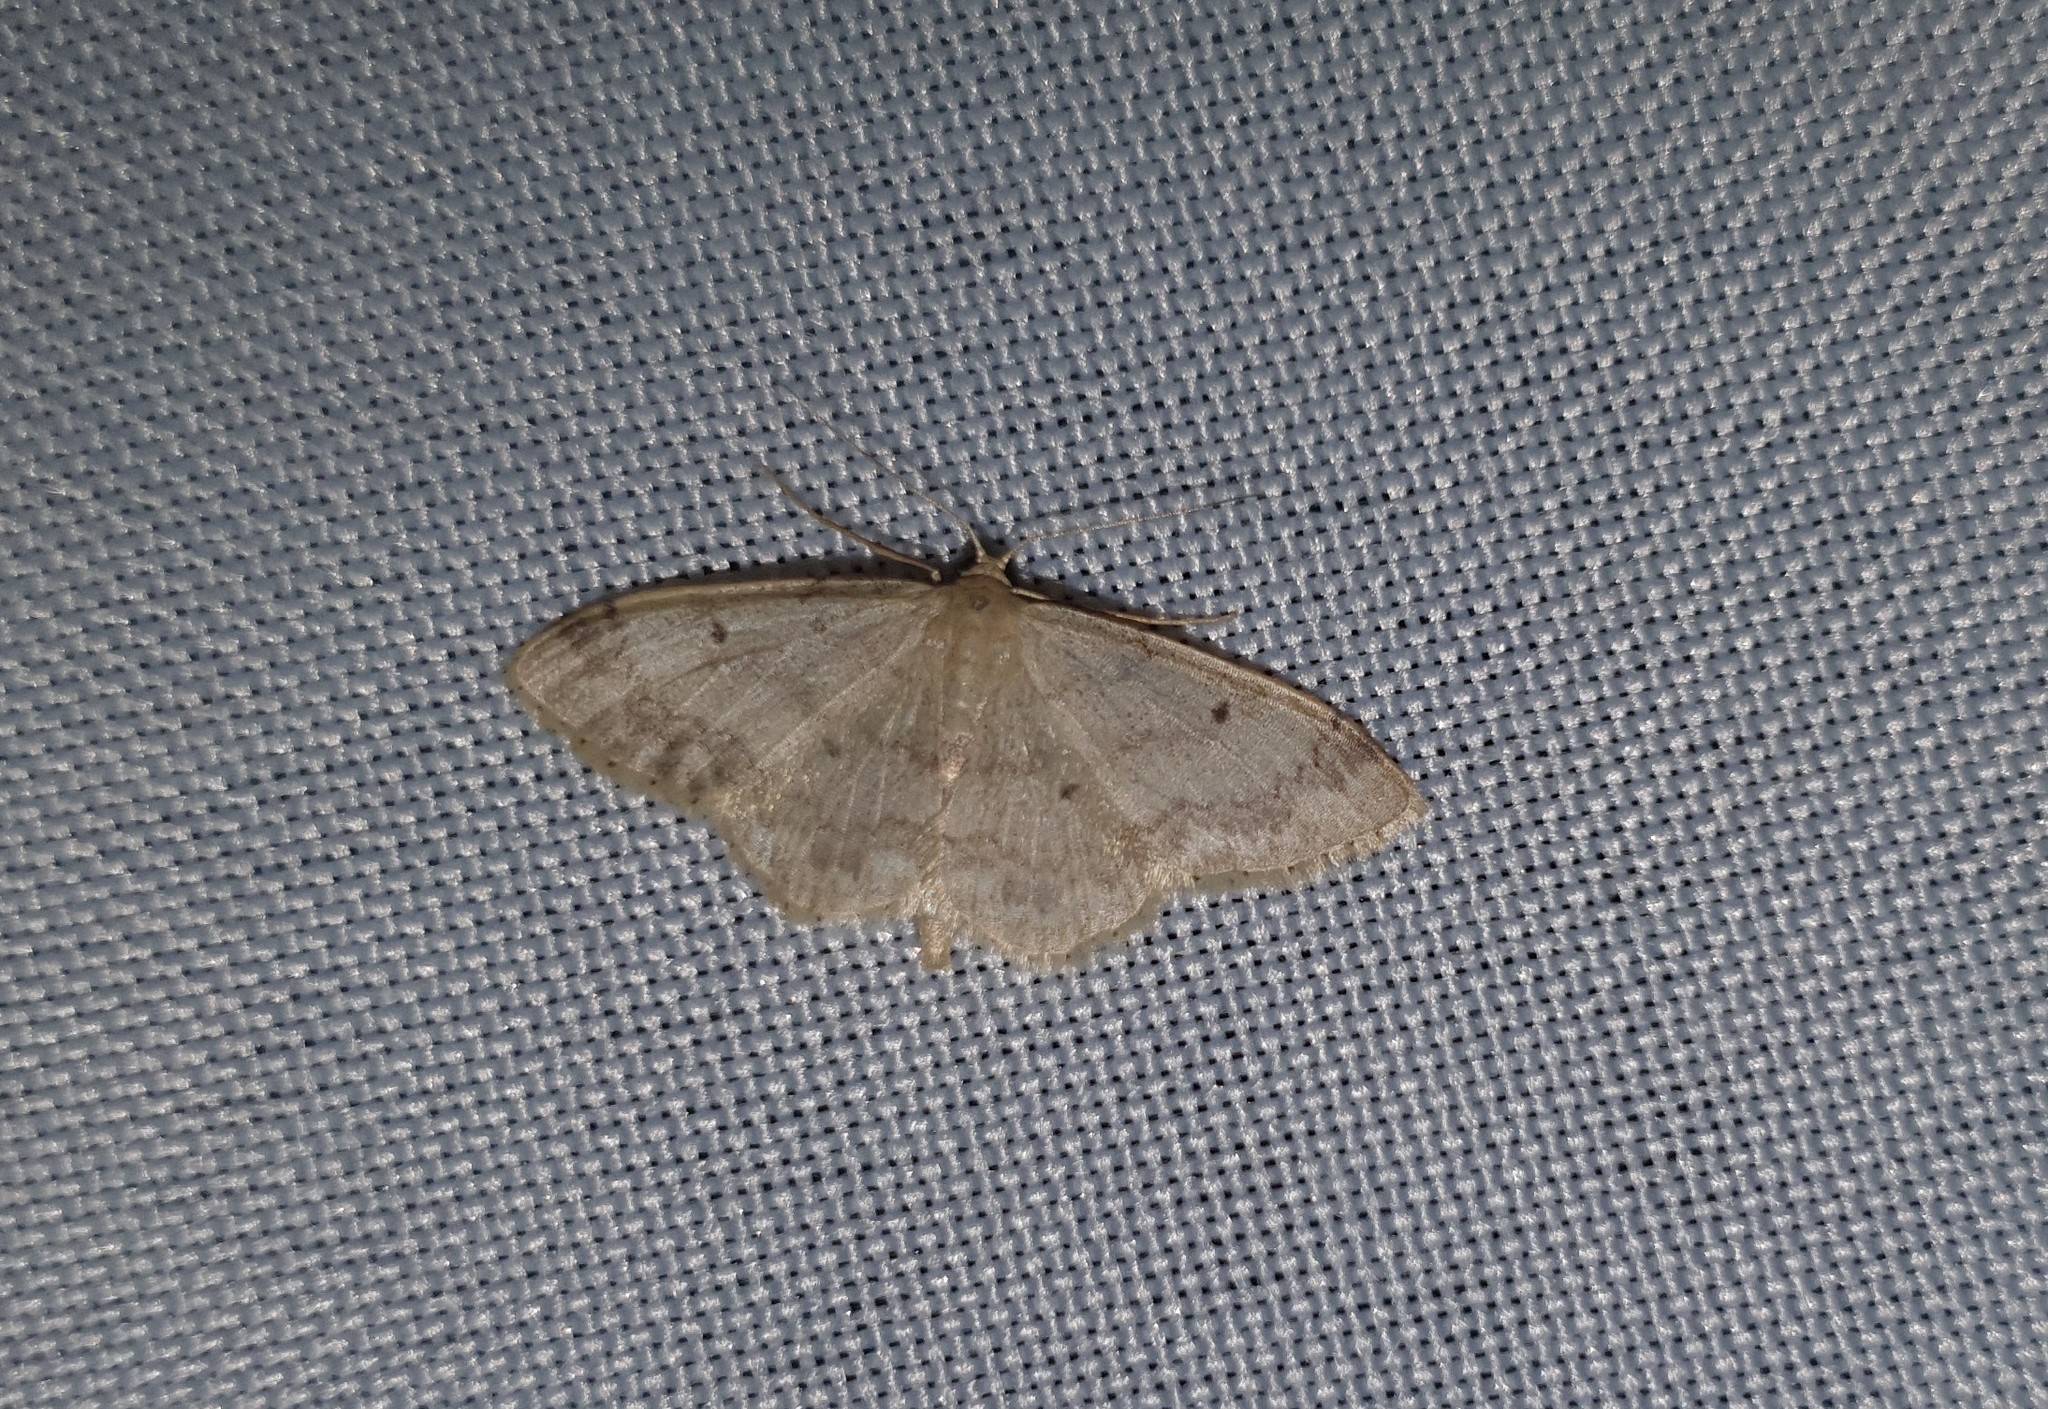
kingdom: Animalia
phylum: Arthropoda
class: Insecta
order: Lepidoptera
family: Geometridae
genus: Idaea
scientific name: Idaea biselata
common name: Small fan-footed wave
